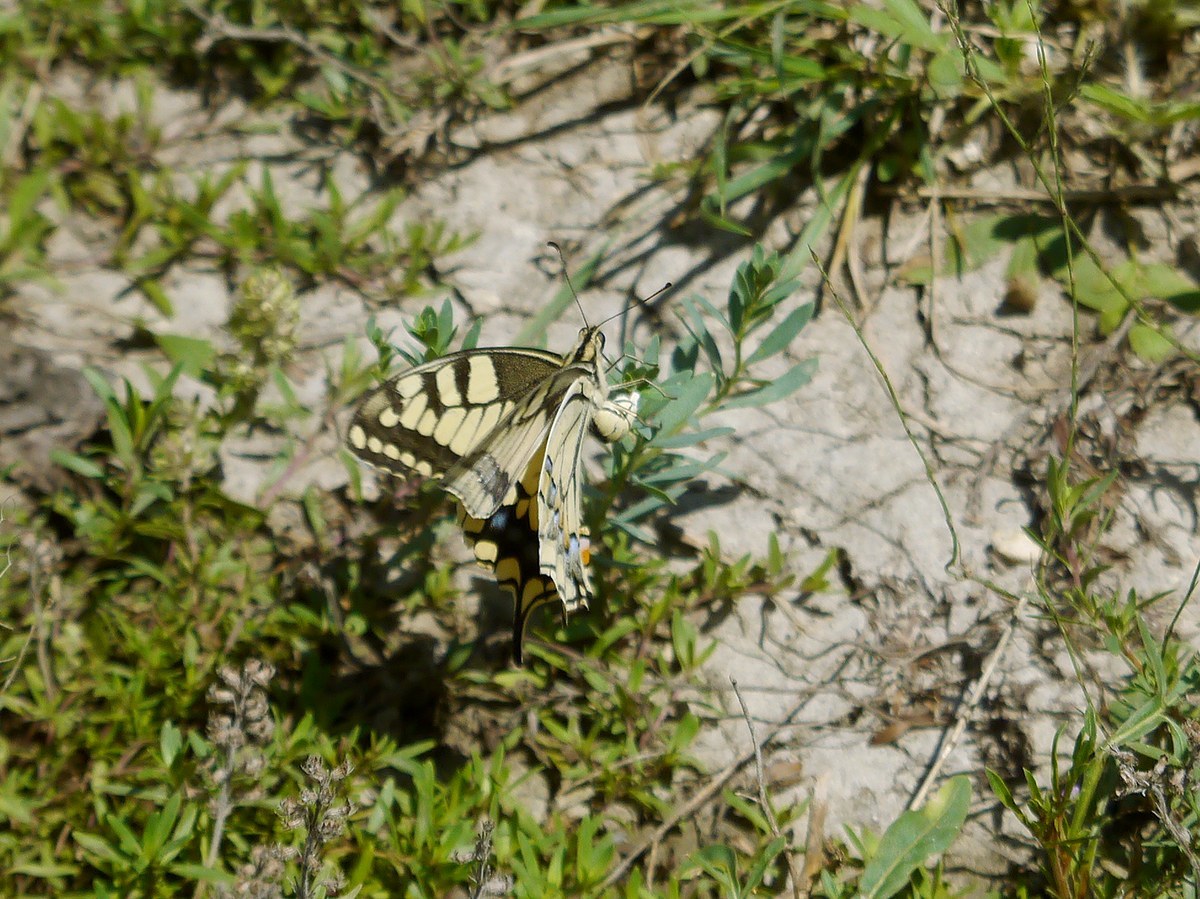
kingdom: Animalia
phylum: Arthropoda
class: Insecta
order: Lepidoptera
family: Papilionidae
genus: Papilio
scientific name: Papilio machaon
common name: Swallowtail
